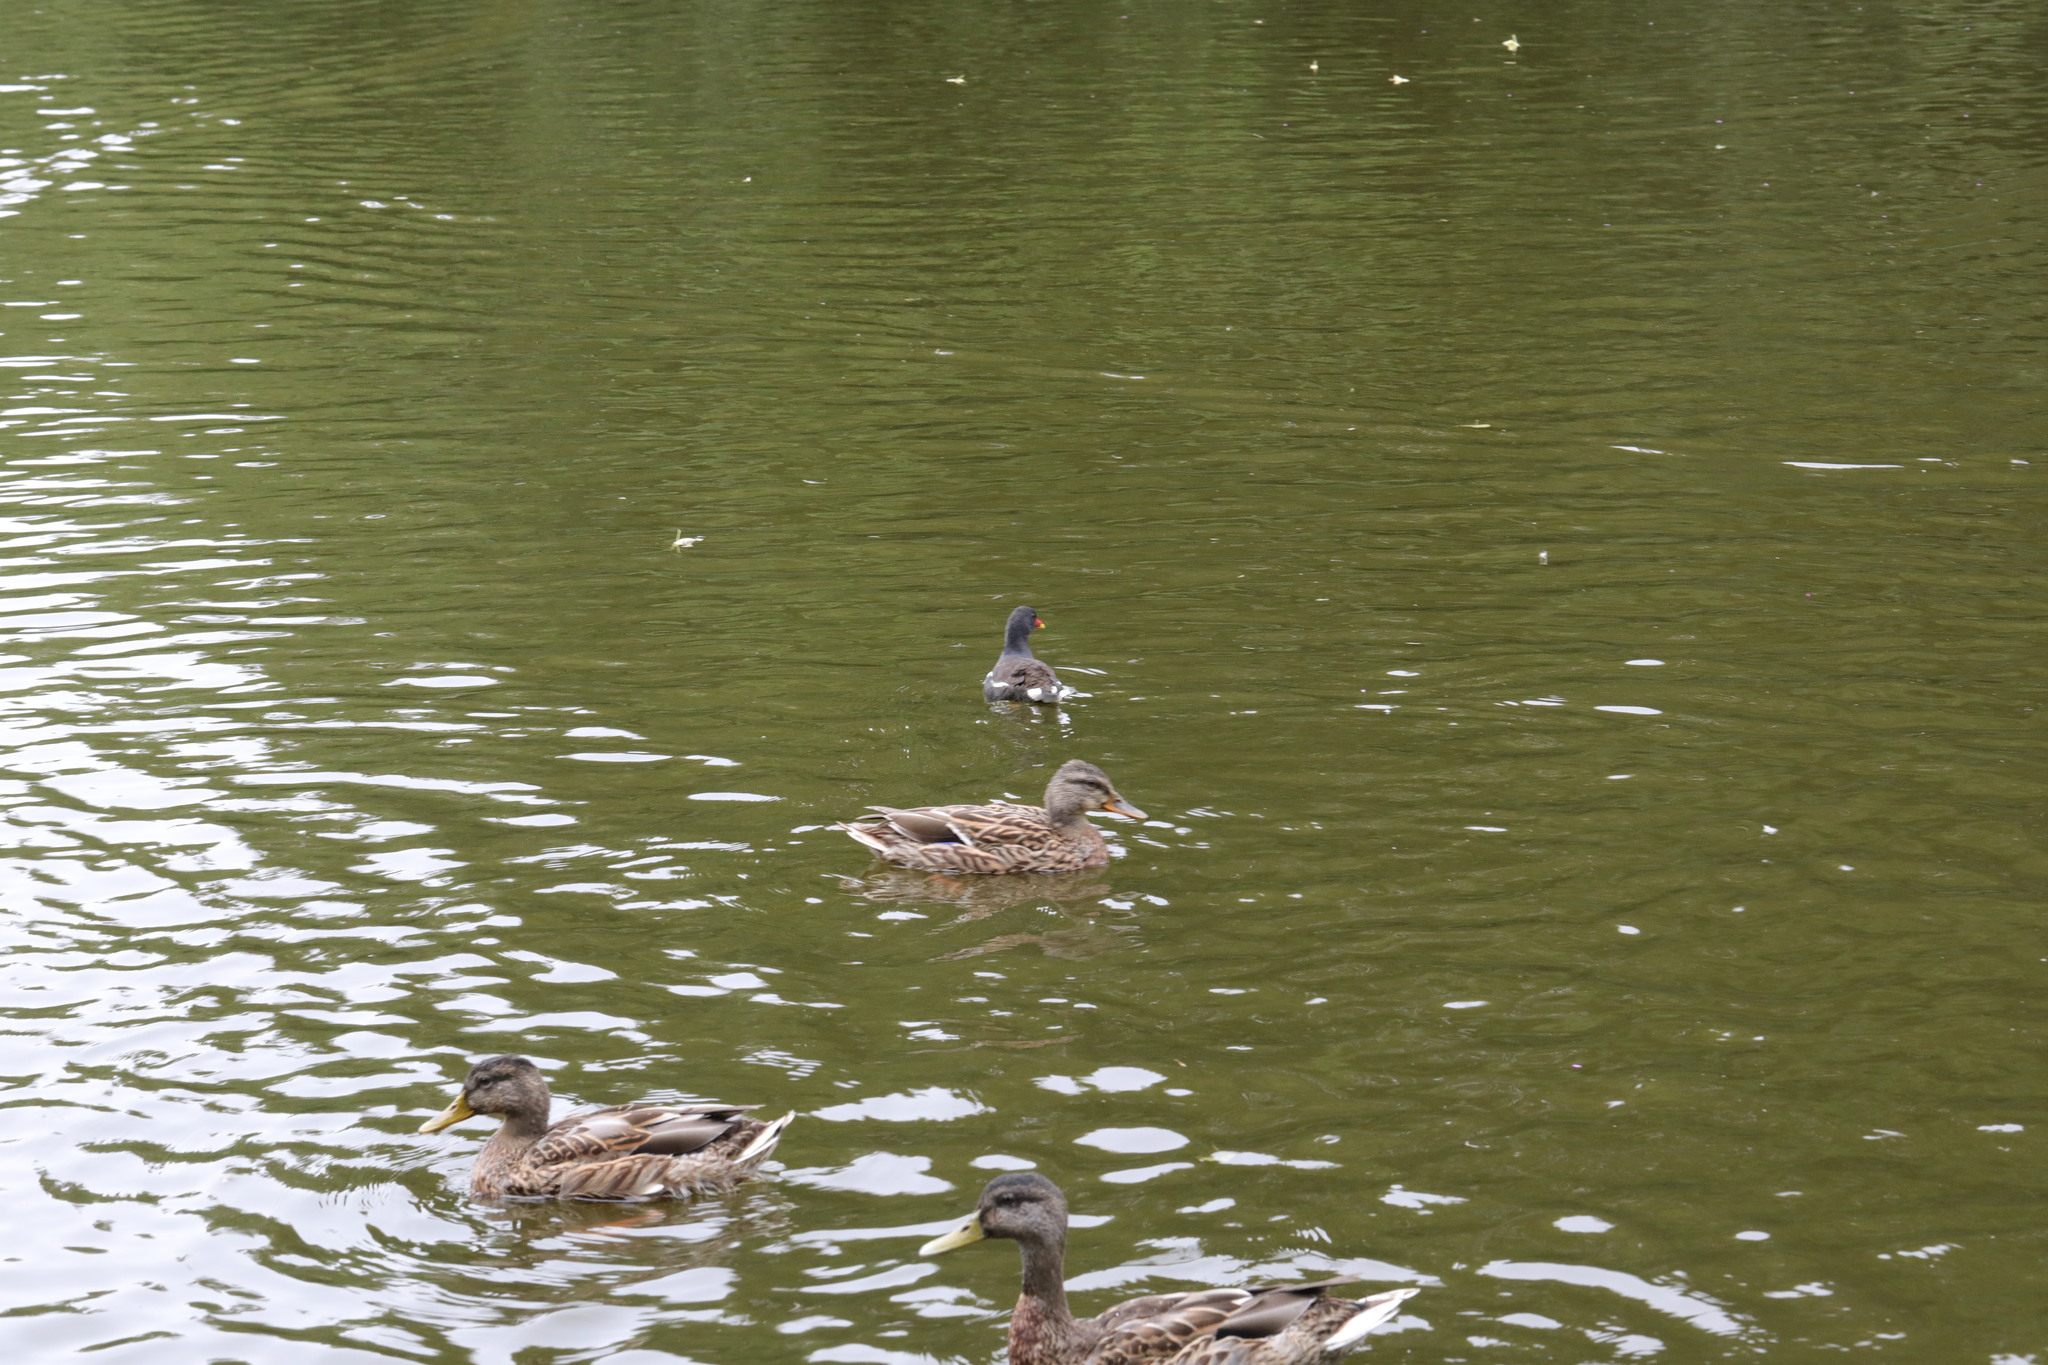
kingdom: Animalia
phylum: Chordata
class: Aves
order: Anseriformes
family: Anatidae
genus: Anas
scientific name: Anas platyrhynchos
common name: Mallard
